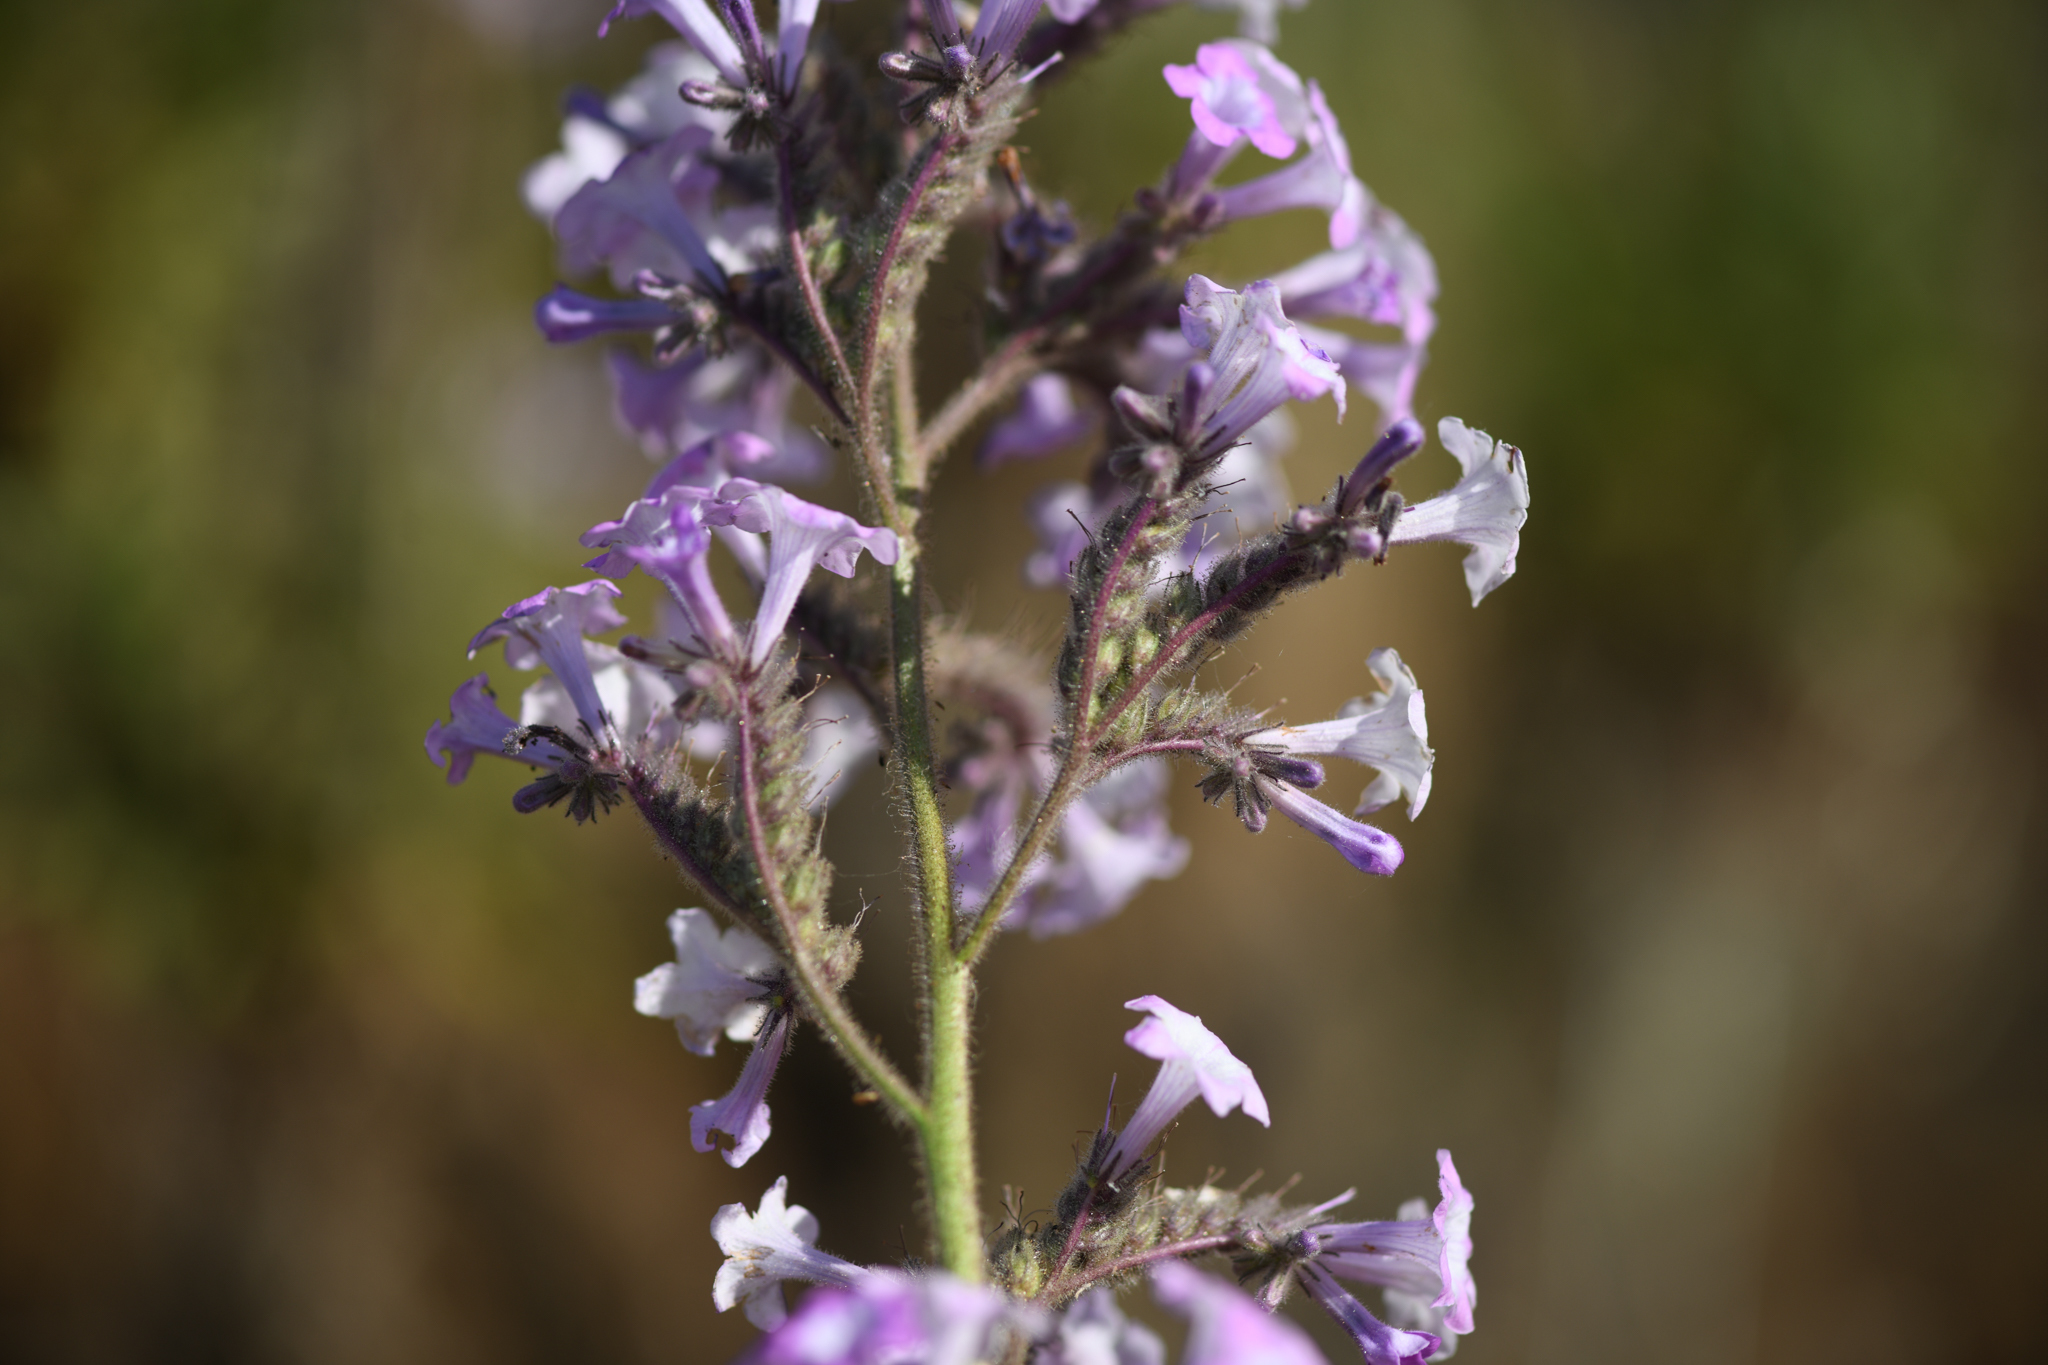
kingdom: Plantae
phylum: Tracheophyta
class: Magnoliopsida
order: Boraginales
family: Namaceae
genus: Turricula
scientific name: Turricula parryi
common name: Poodle-dog-bush
